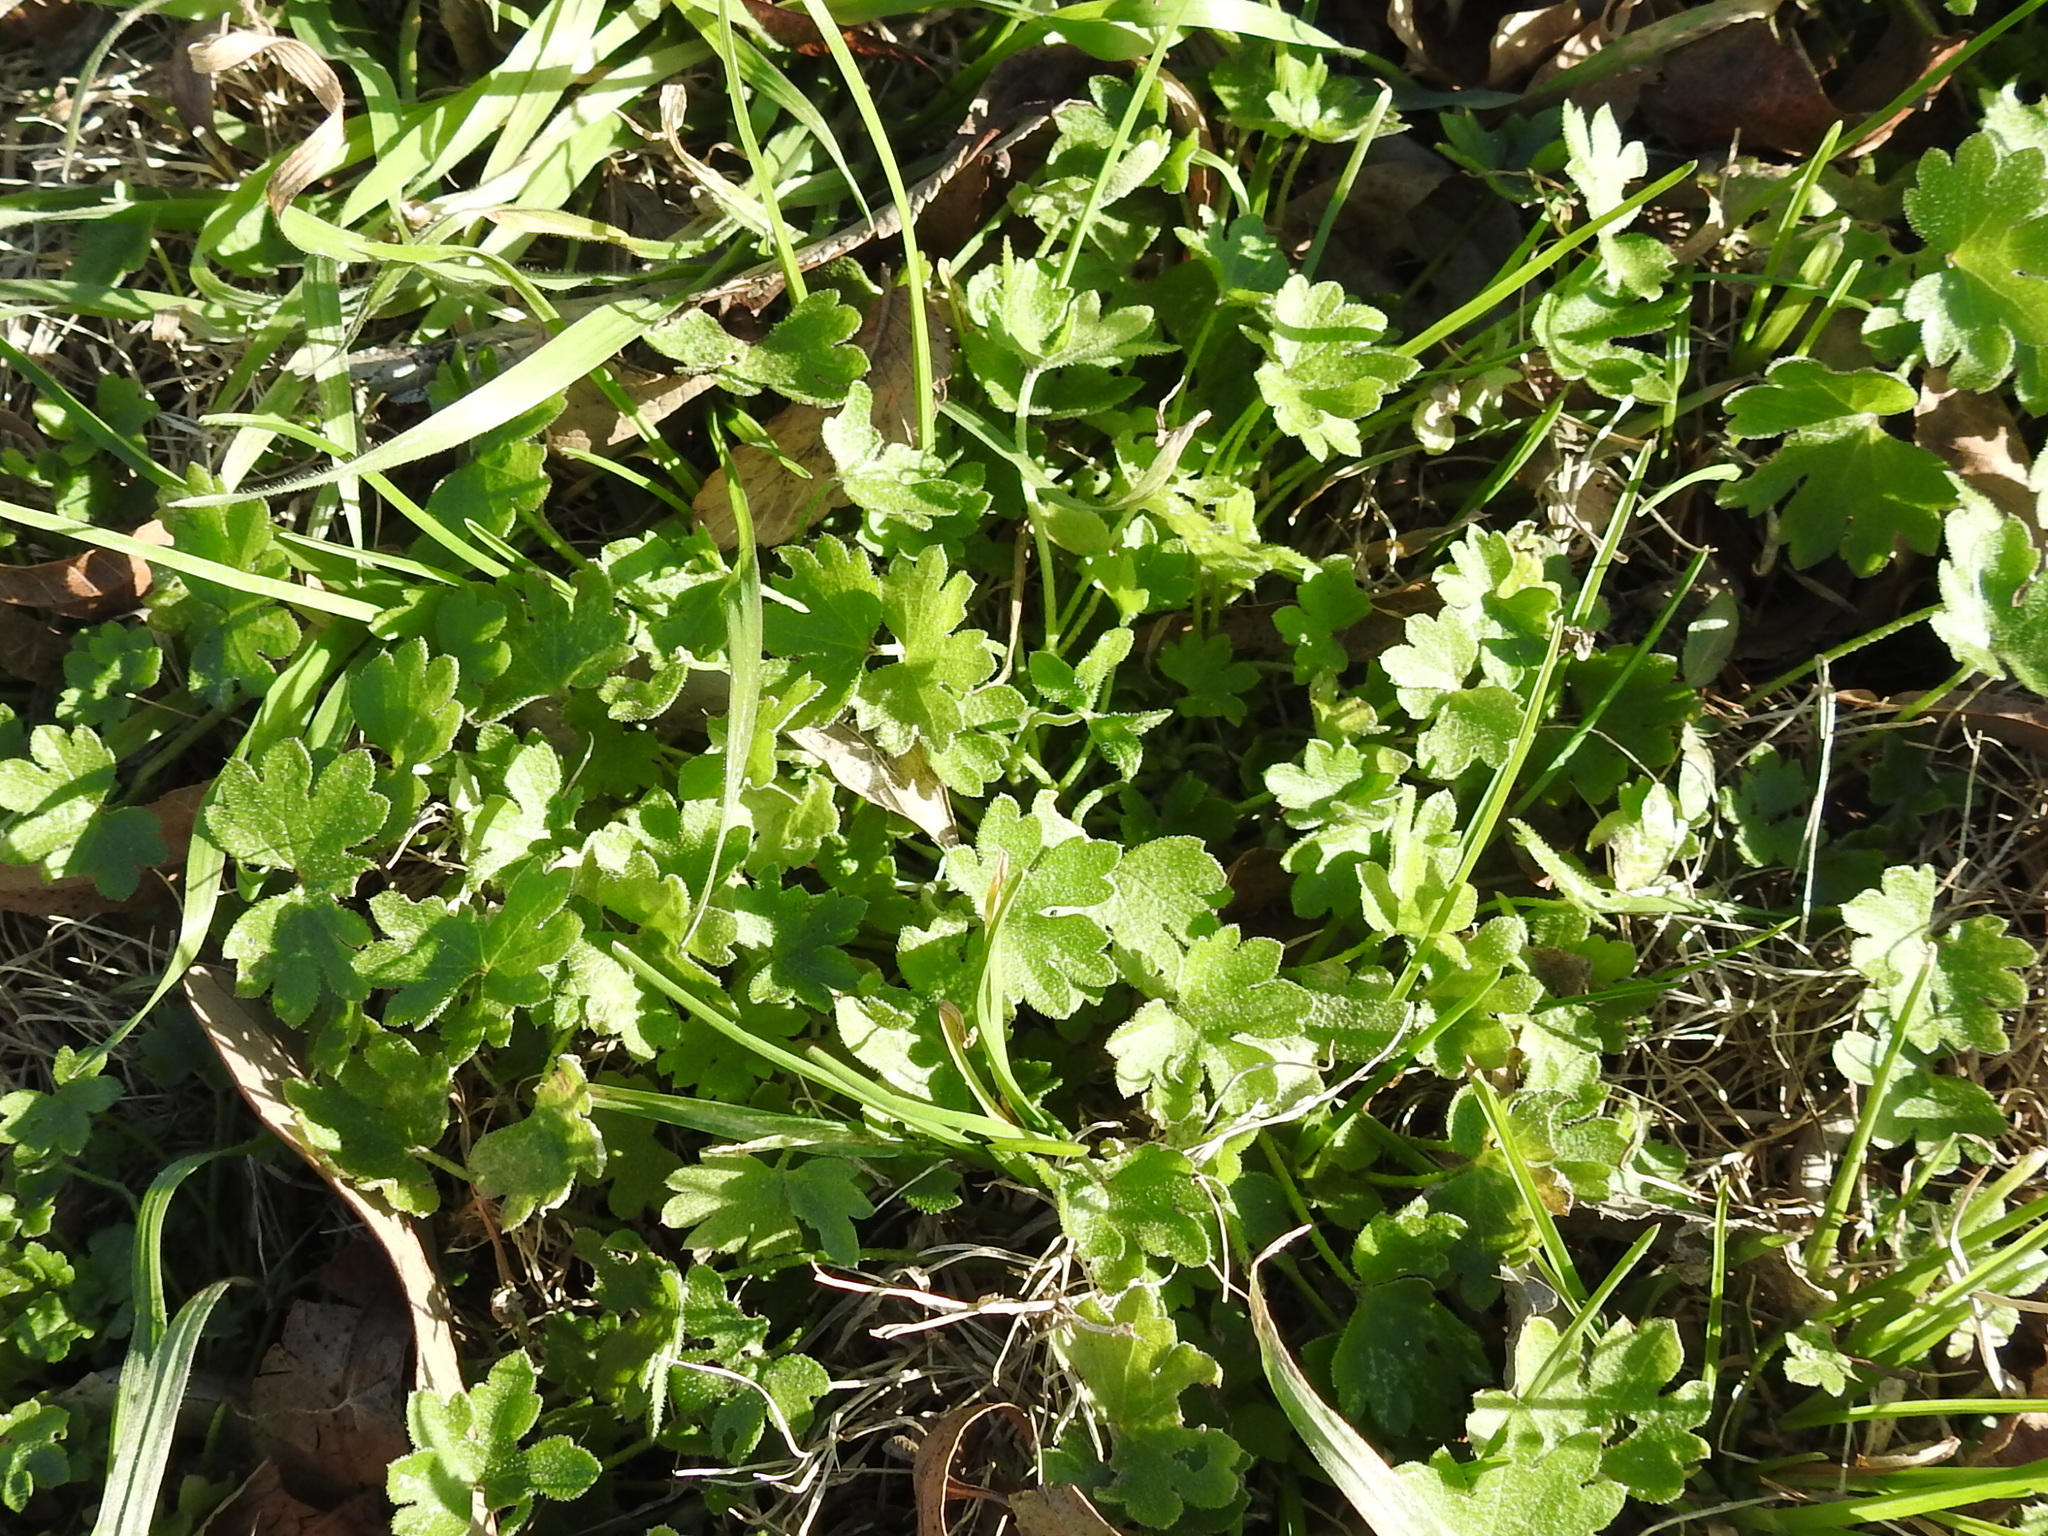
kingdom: Plantae
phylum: Tracheophyta
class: Magnoliopsida
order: Apiales
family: Apiaceae
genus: Bowlesia
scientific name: Bowlesia incana
